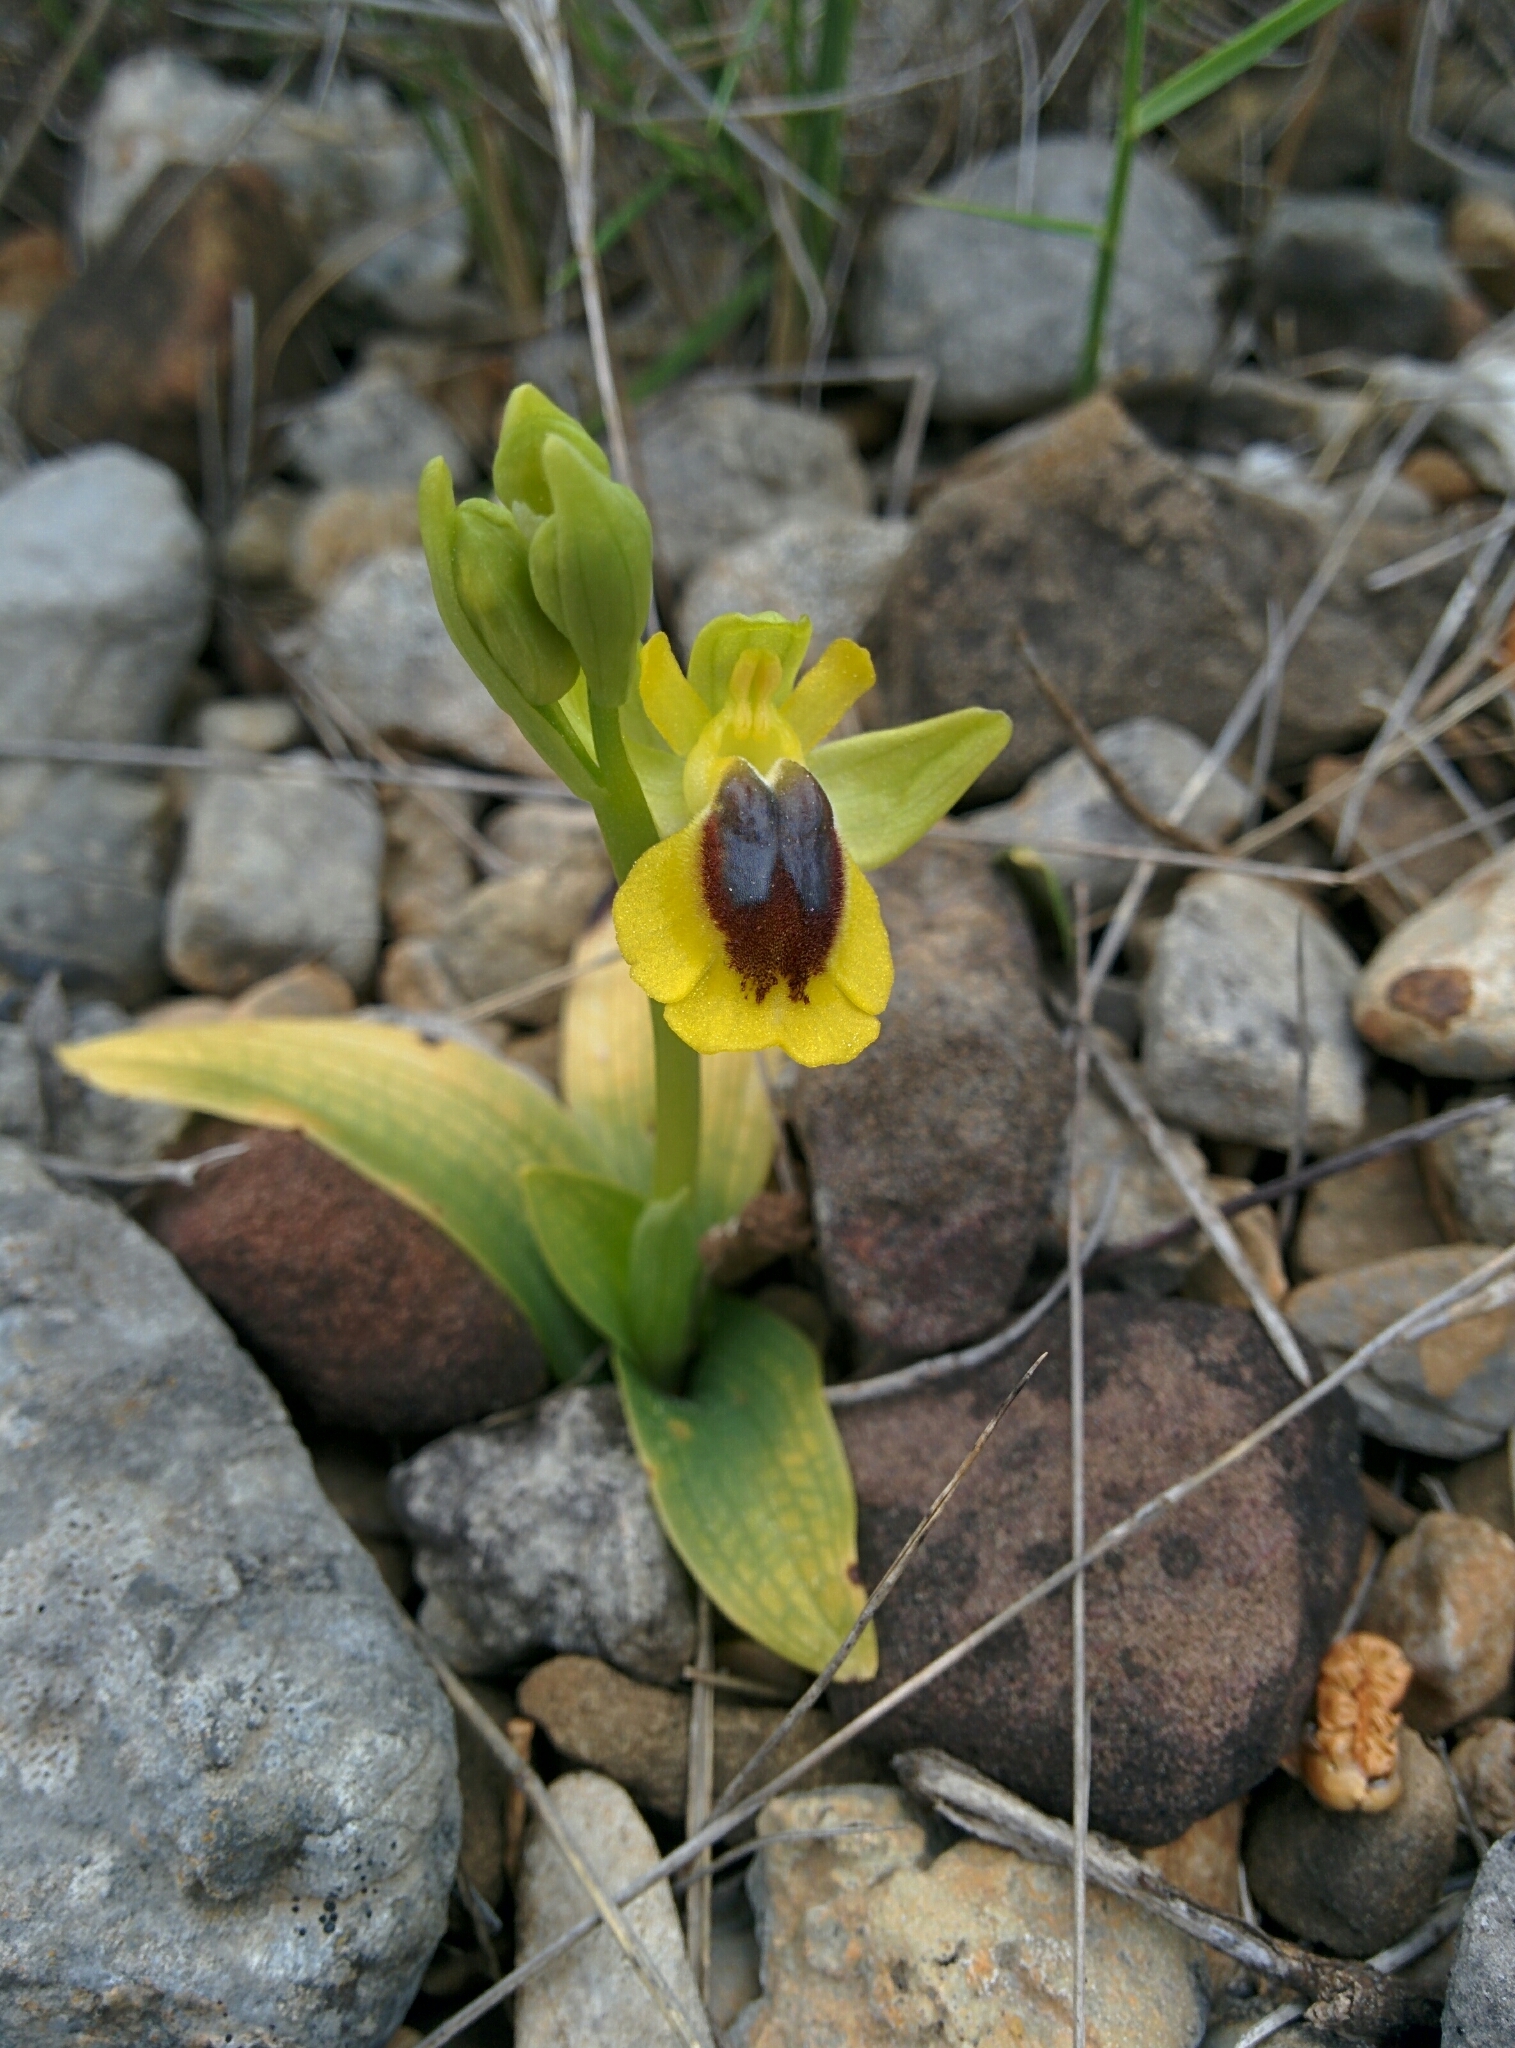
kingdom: Plantae
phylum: Tracheophyta
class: Liliopsida
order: Asparagales
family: Orchidaceae
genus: Ophrys
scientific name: Ophrys lutea
